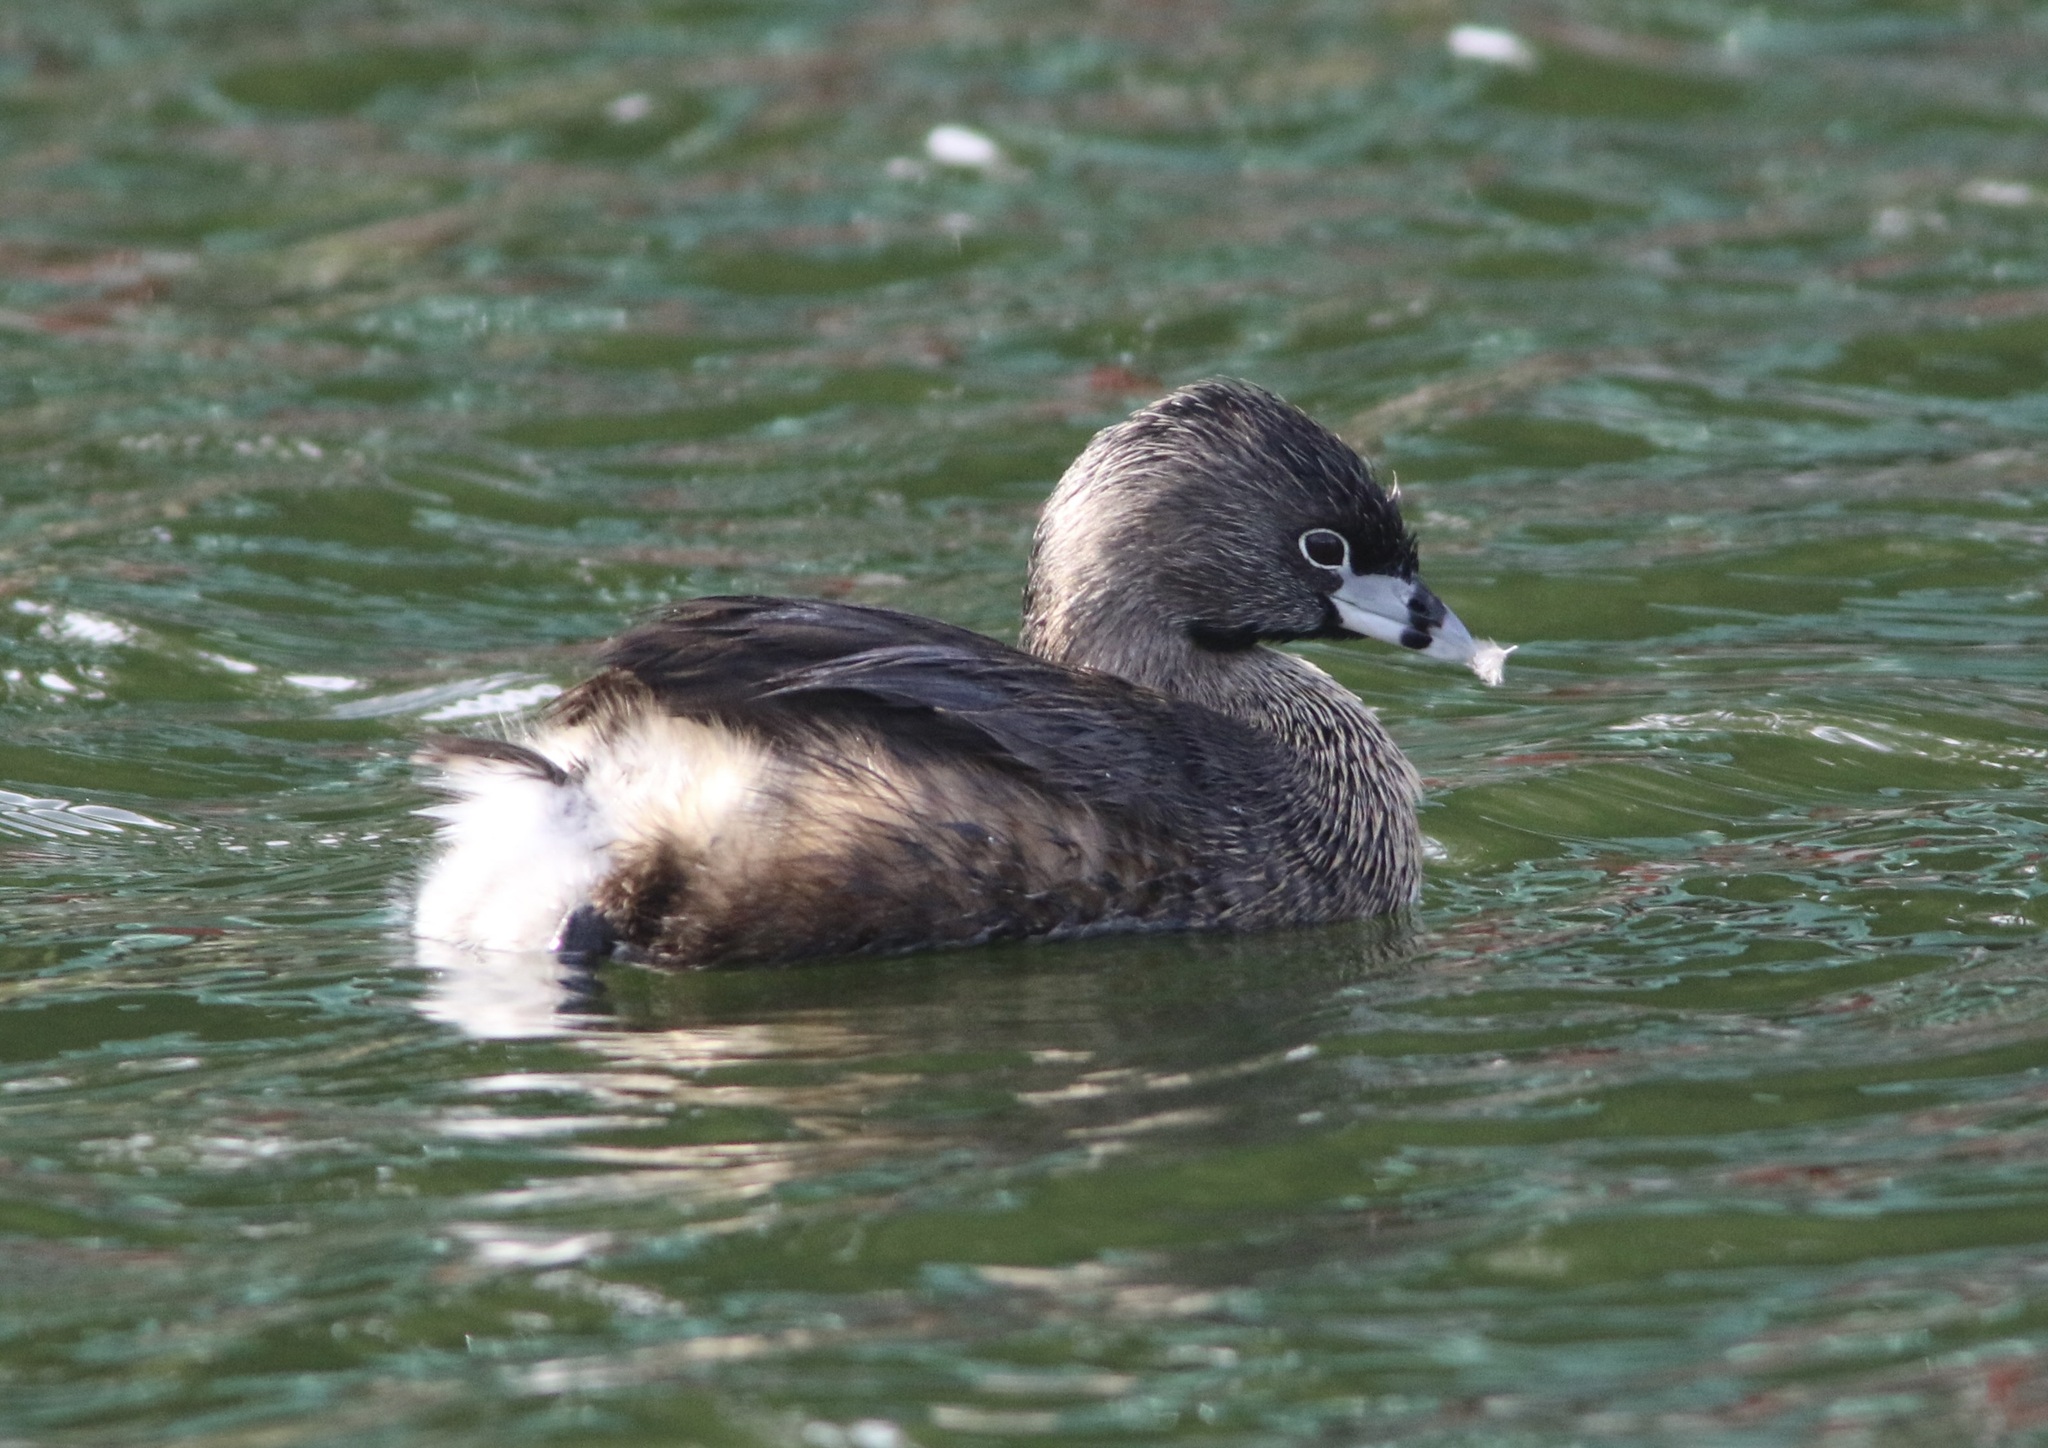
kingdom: Animalia
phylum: Chordata
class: Aves
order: Podicipediformes
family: Podicipedidae
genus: Podilymbus
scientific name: Podilymbus podiceps
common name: Pied-billed grebe
